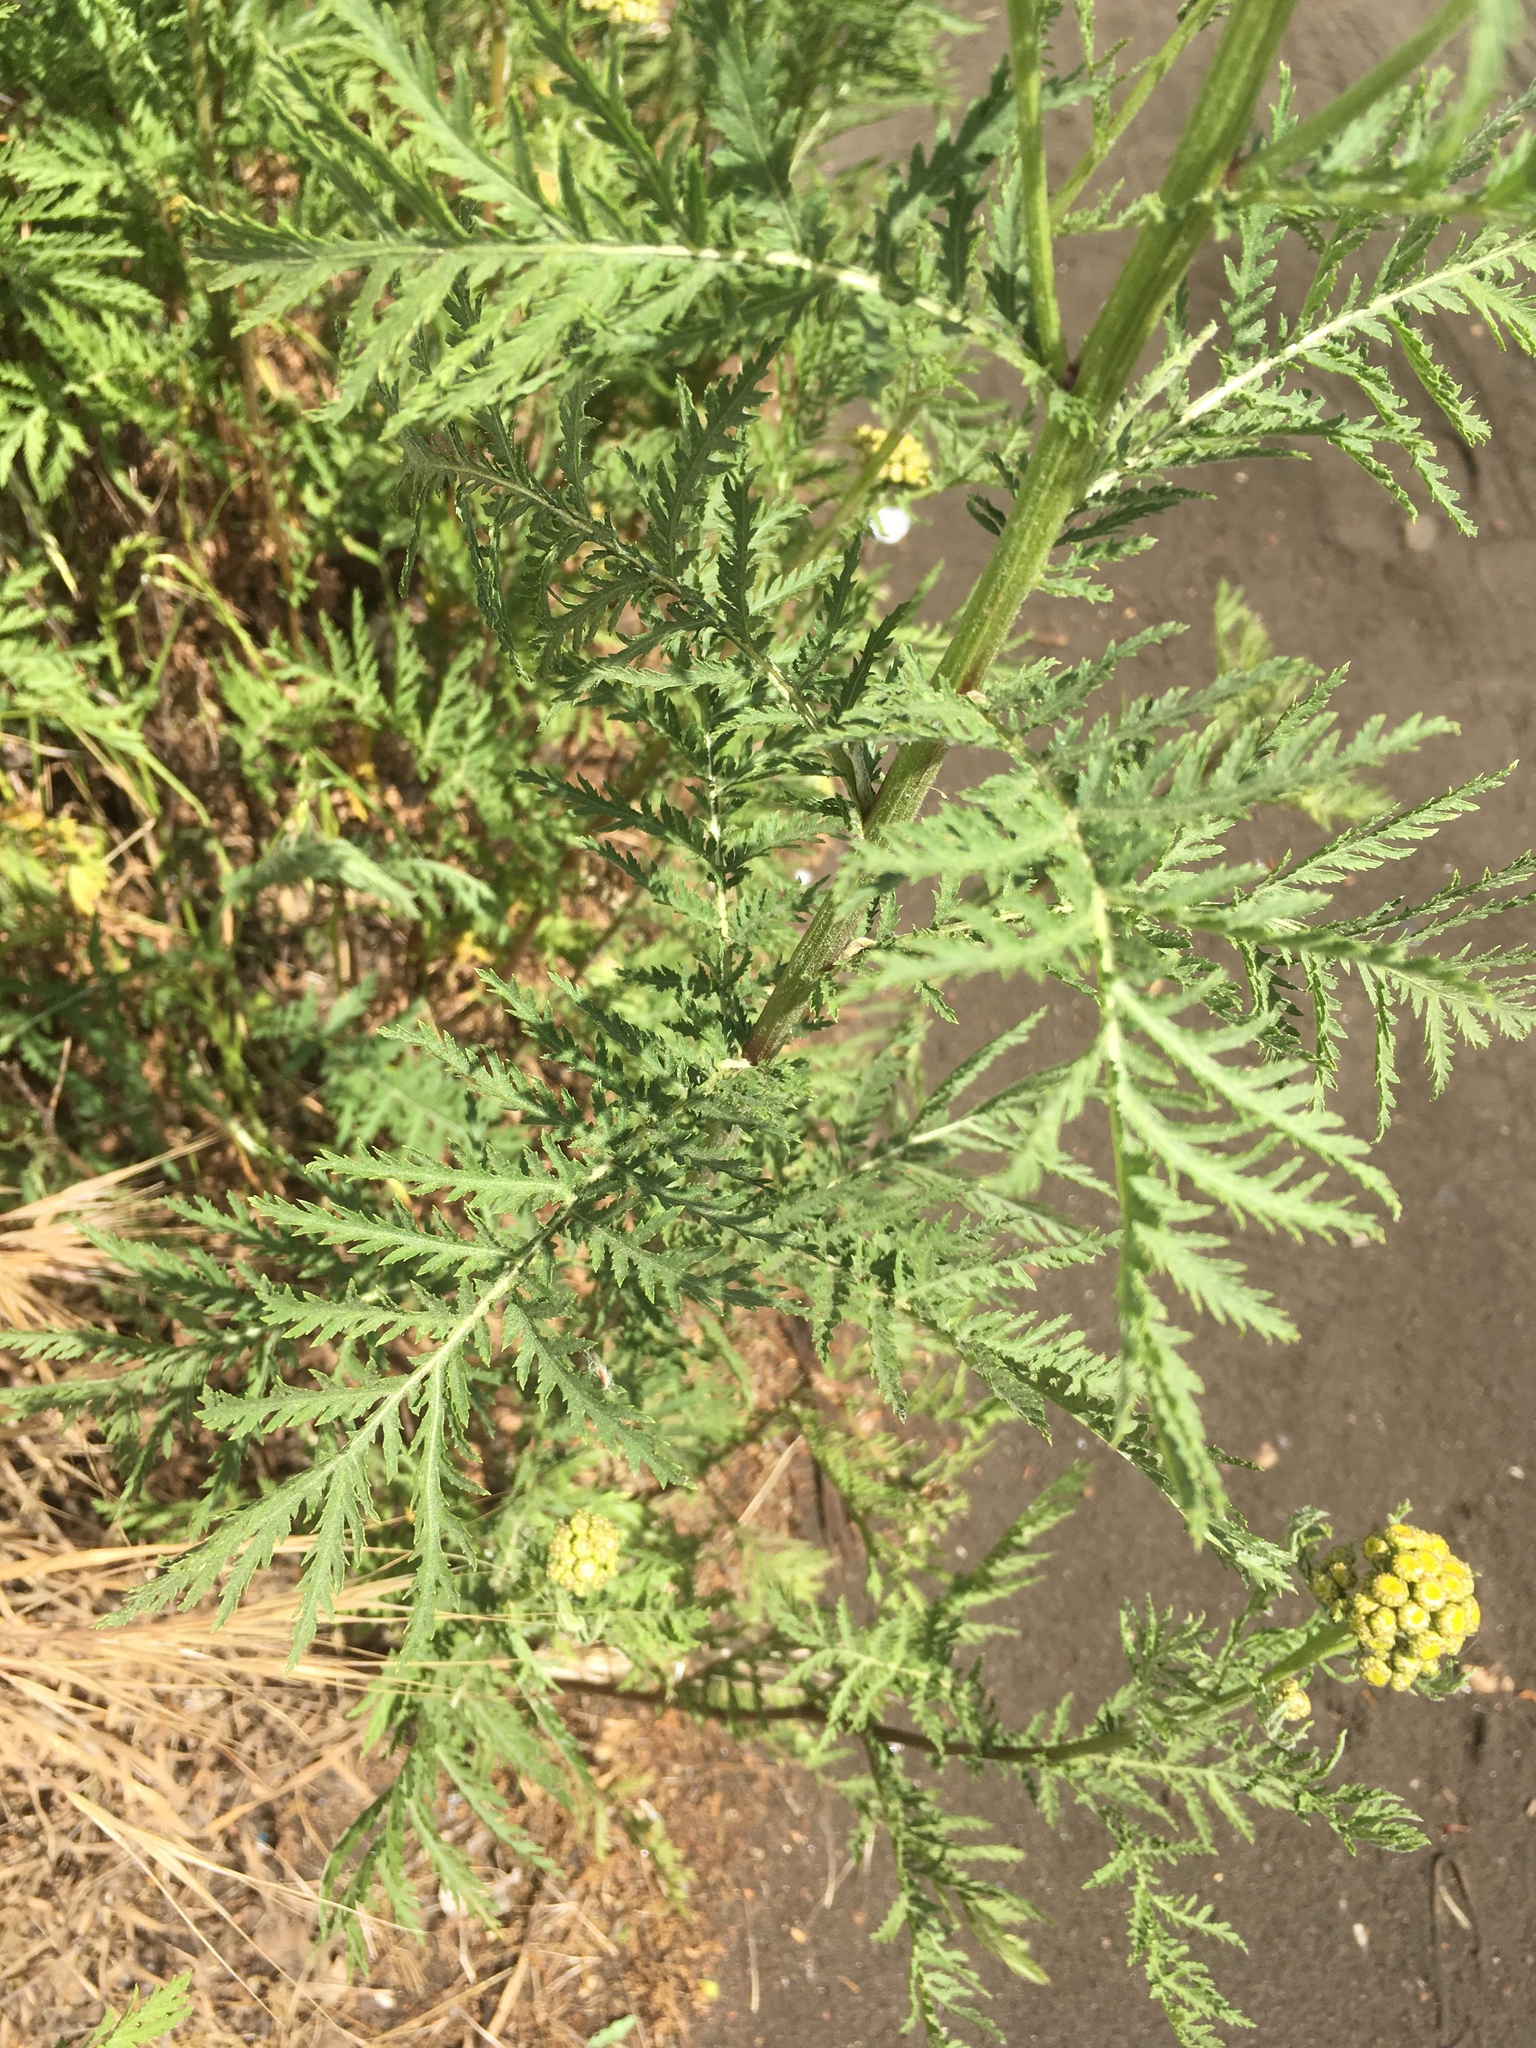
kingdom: Plantae
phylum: Tracheophyta
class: Magnoliopsida
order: Asterales
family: Asteraceae
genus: Tanacetum
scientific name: Tanacetum vulgare
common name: Common tansy
